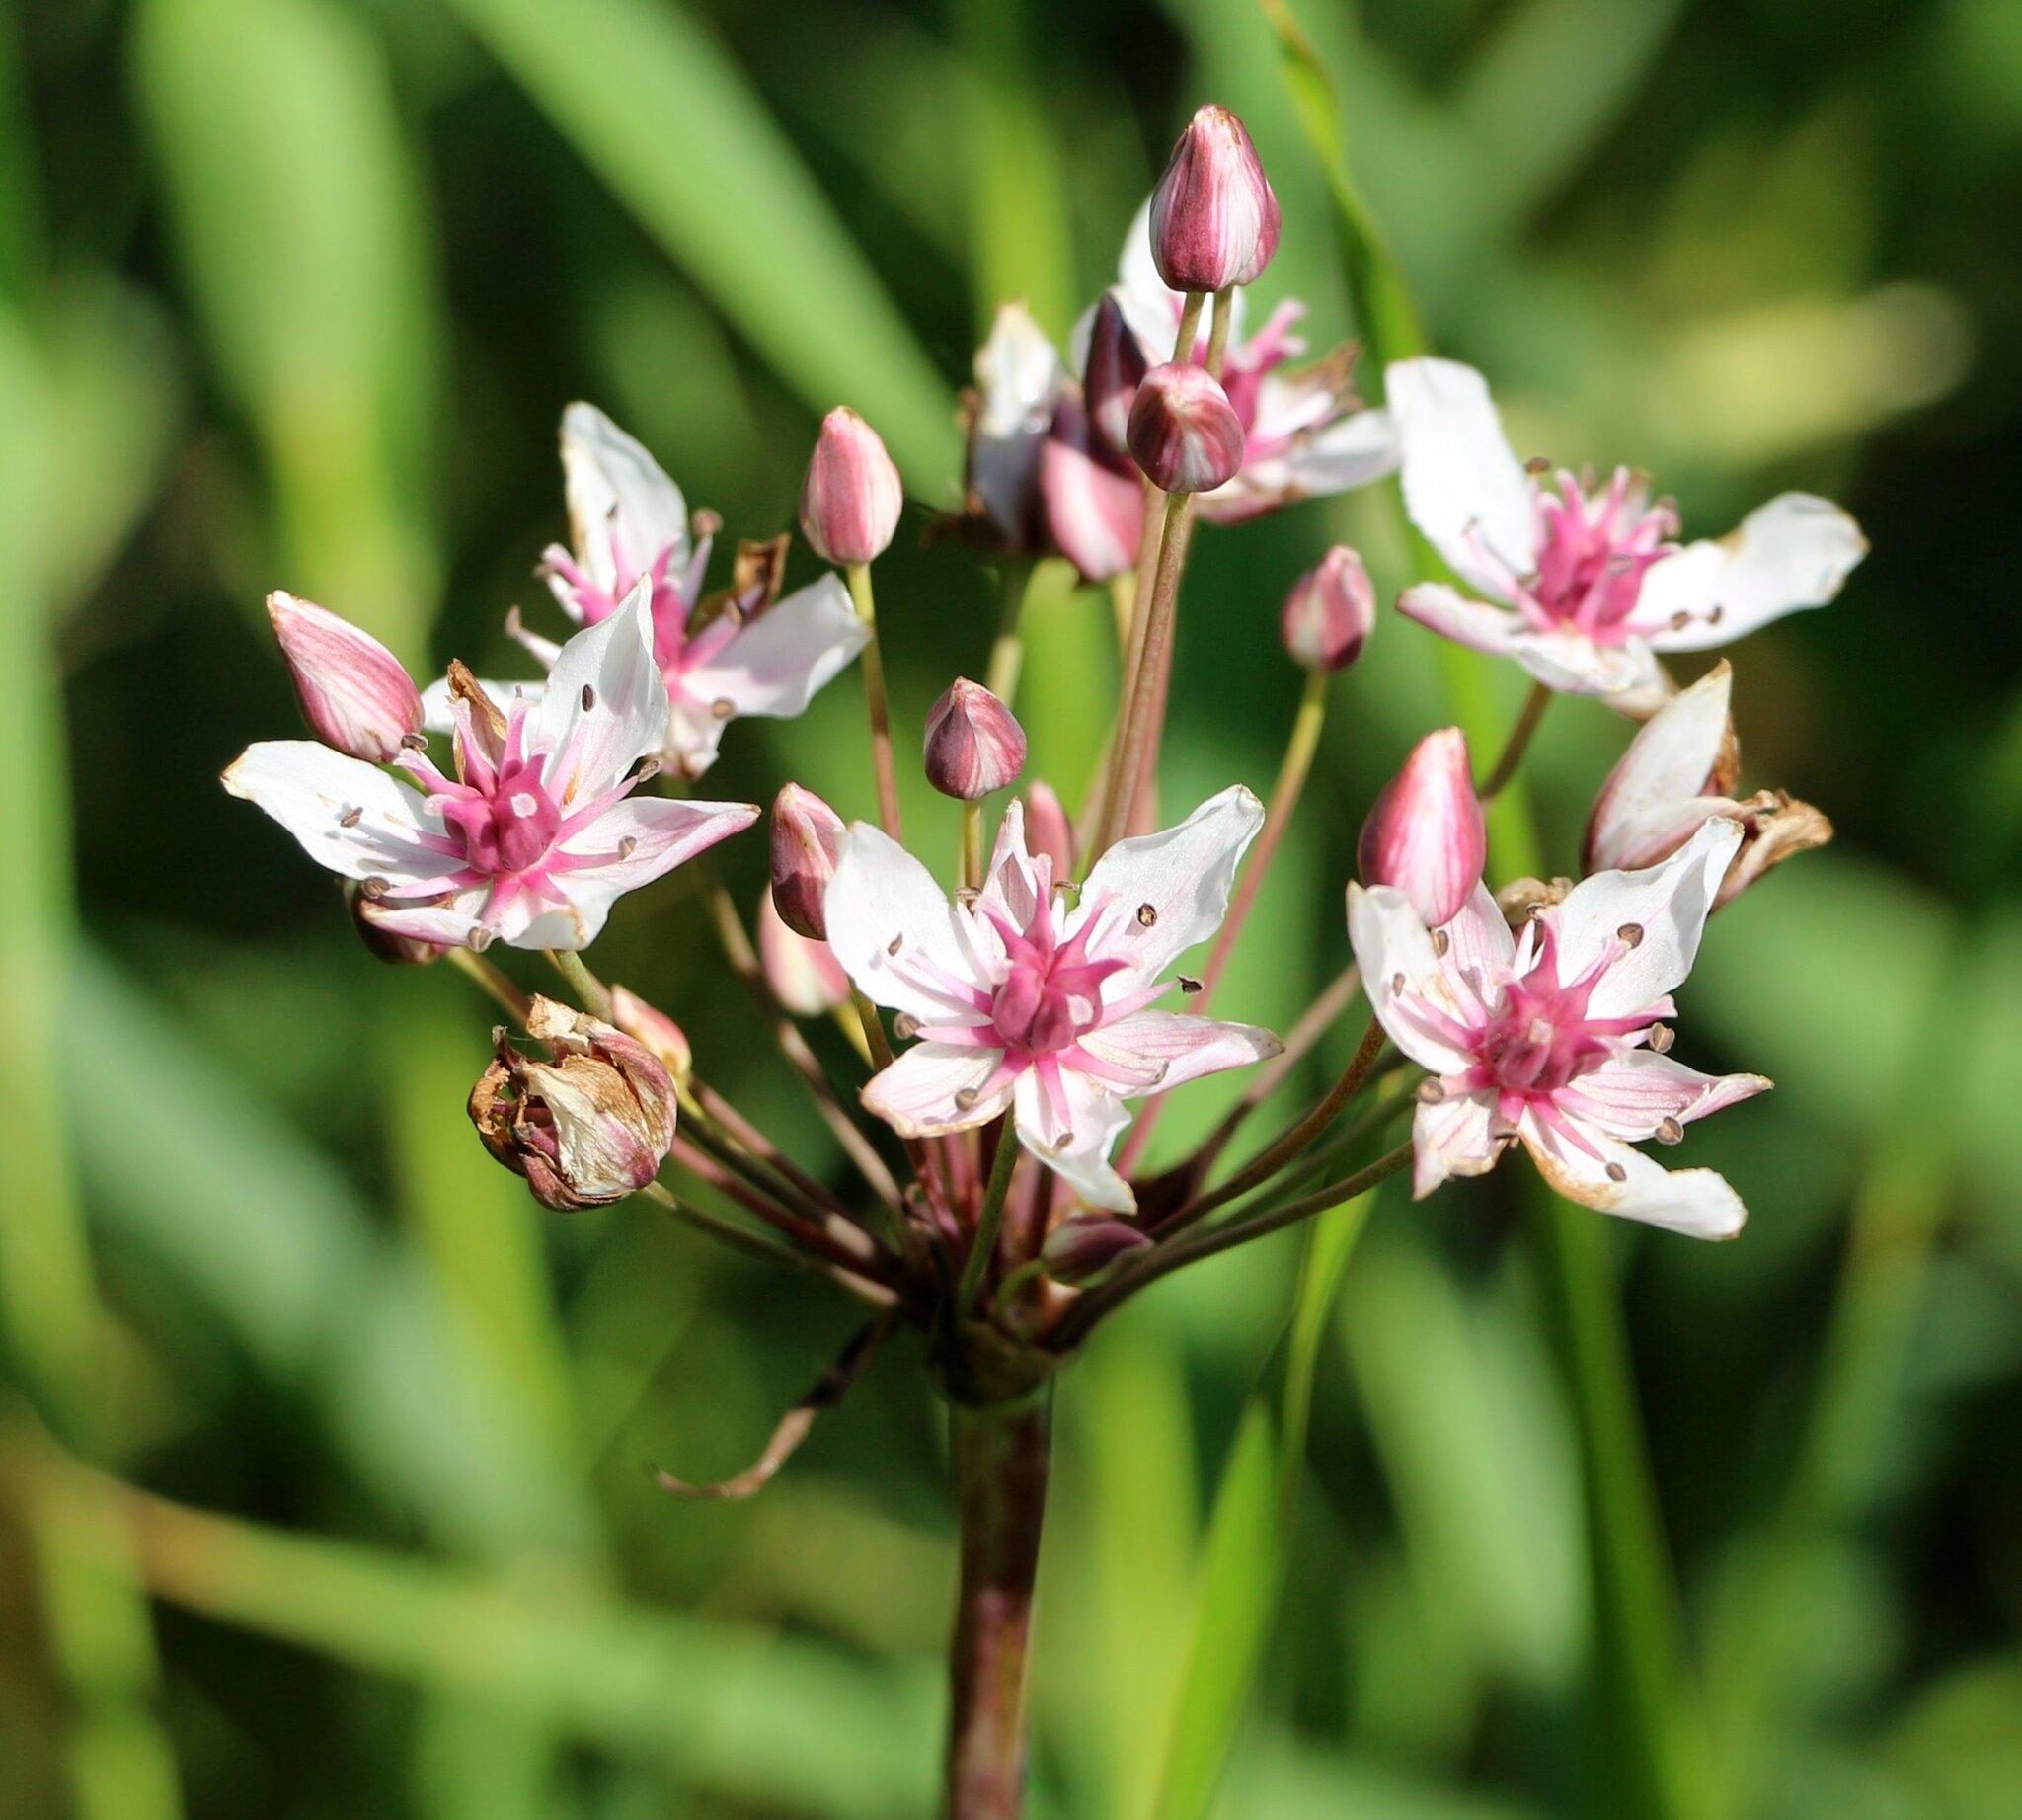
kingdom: Plantae
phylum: Tracheophyta
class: Liliopsida
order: Alismatales
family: Butomaceae
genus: Butomus
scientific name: Butomus umbellatus
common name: Flowering-rush
